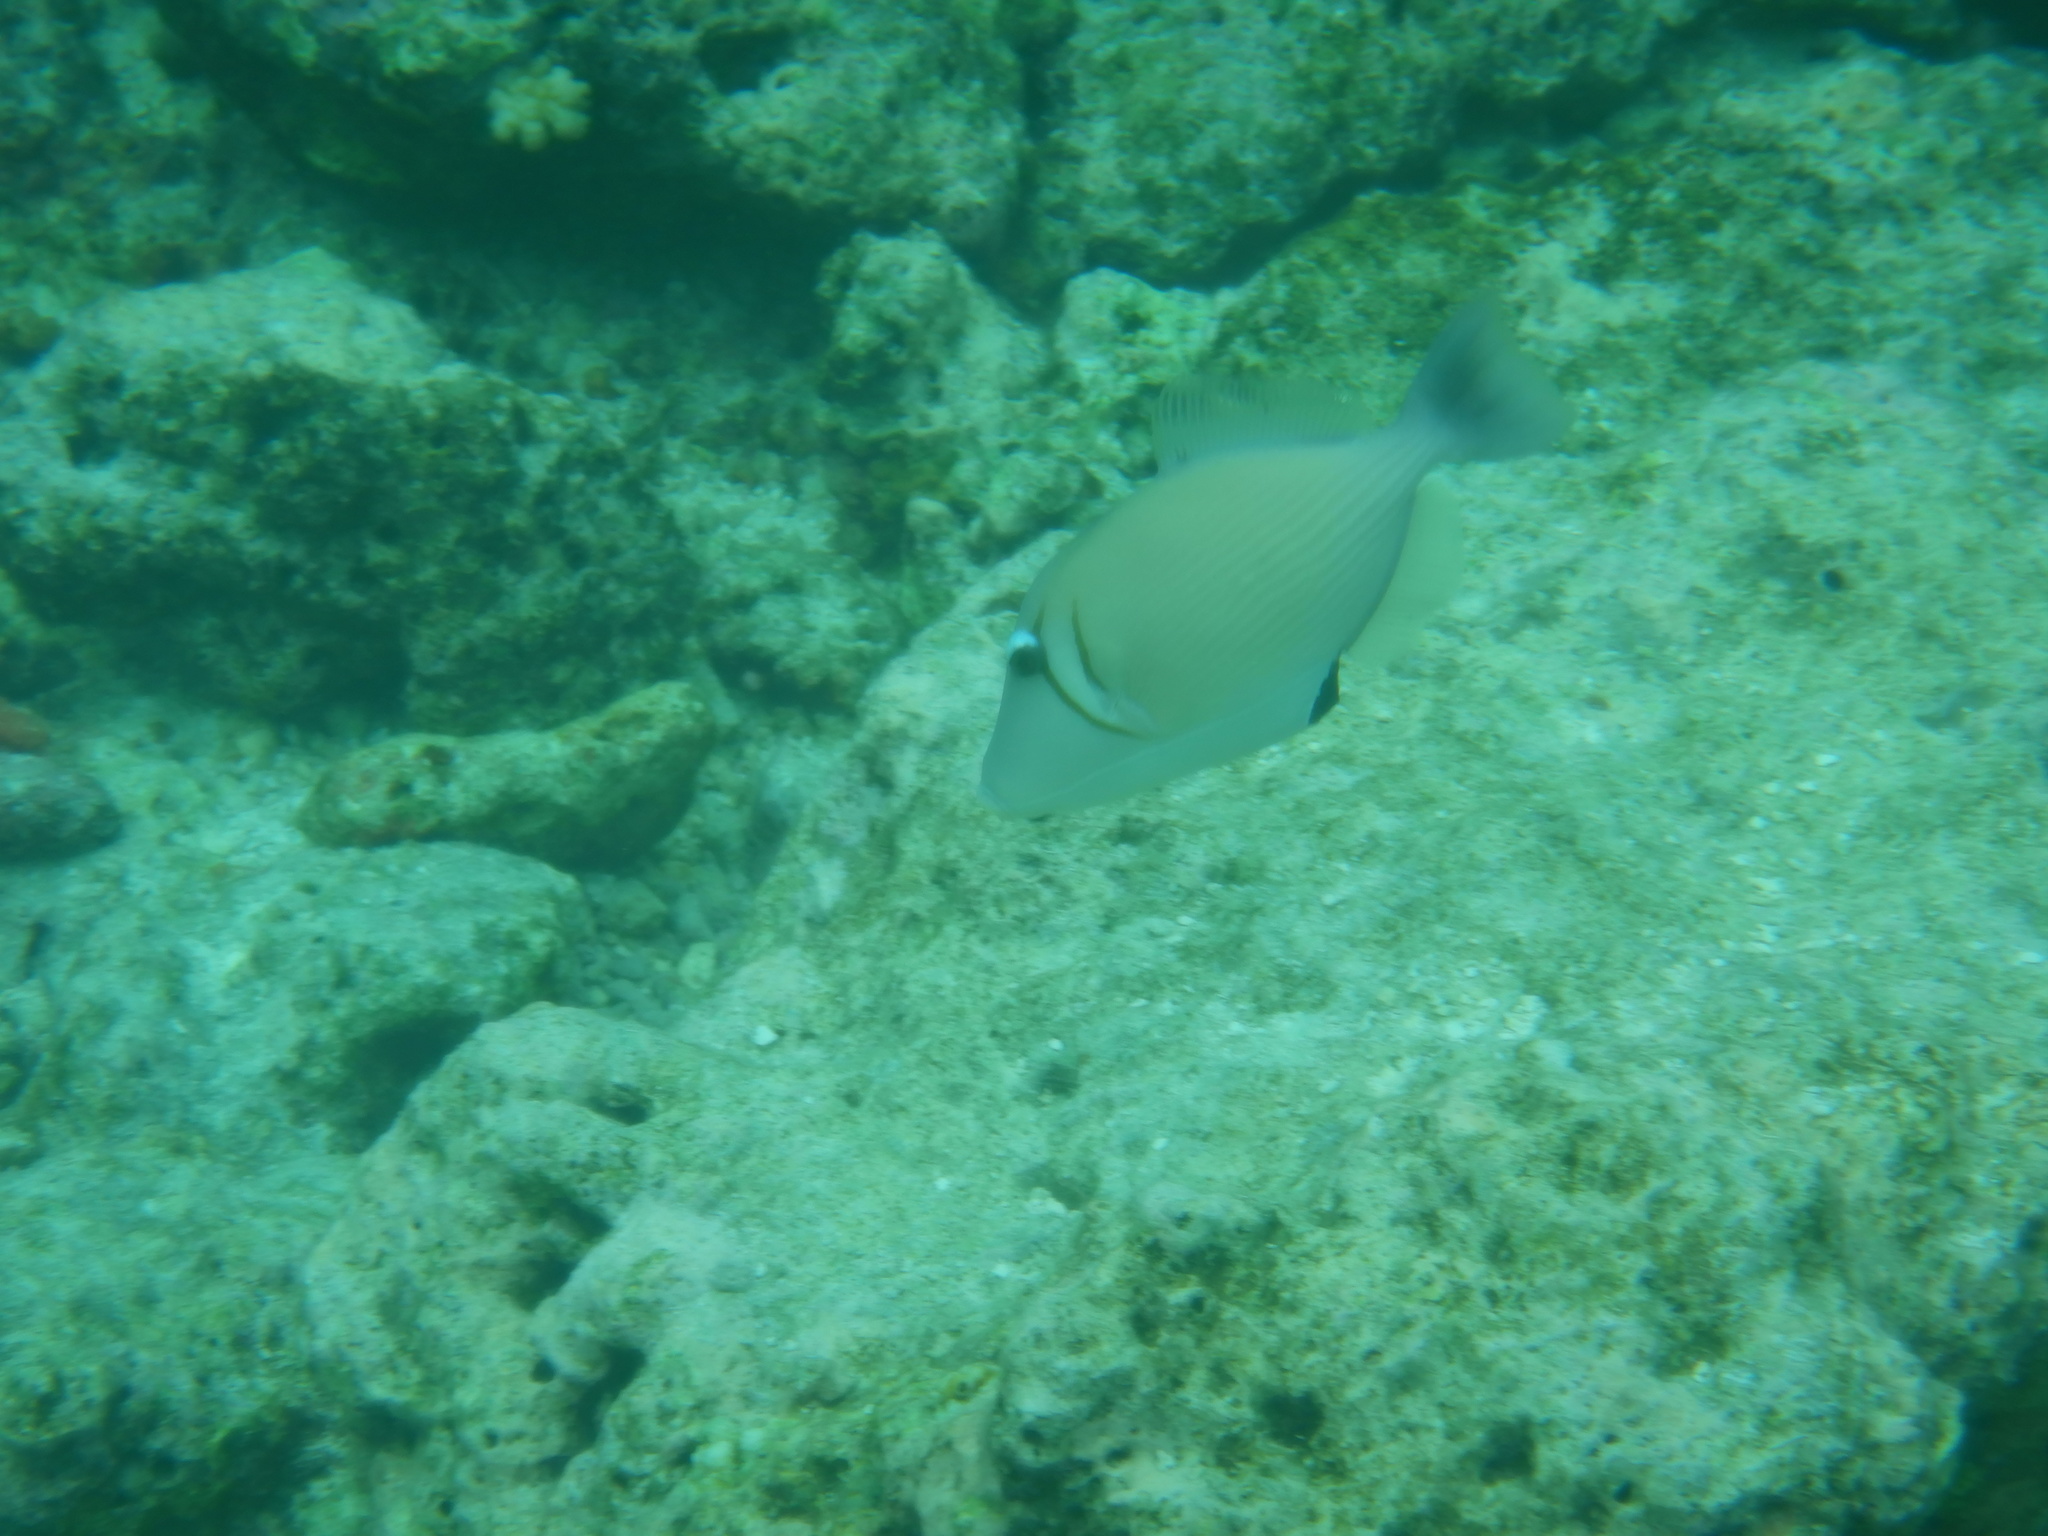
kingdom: Animalia
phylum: Chordata
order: Tetraodontiformes
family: Balistidae
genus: Sufflamen
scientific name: Sufflamen bursa
